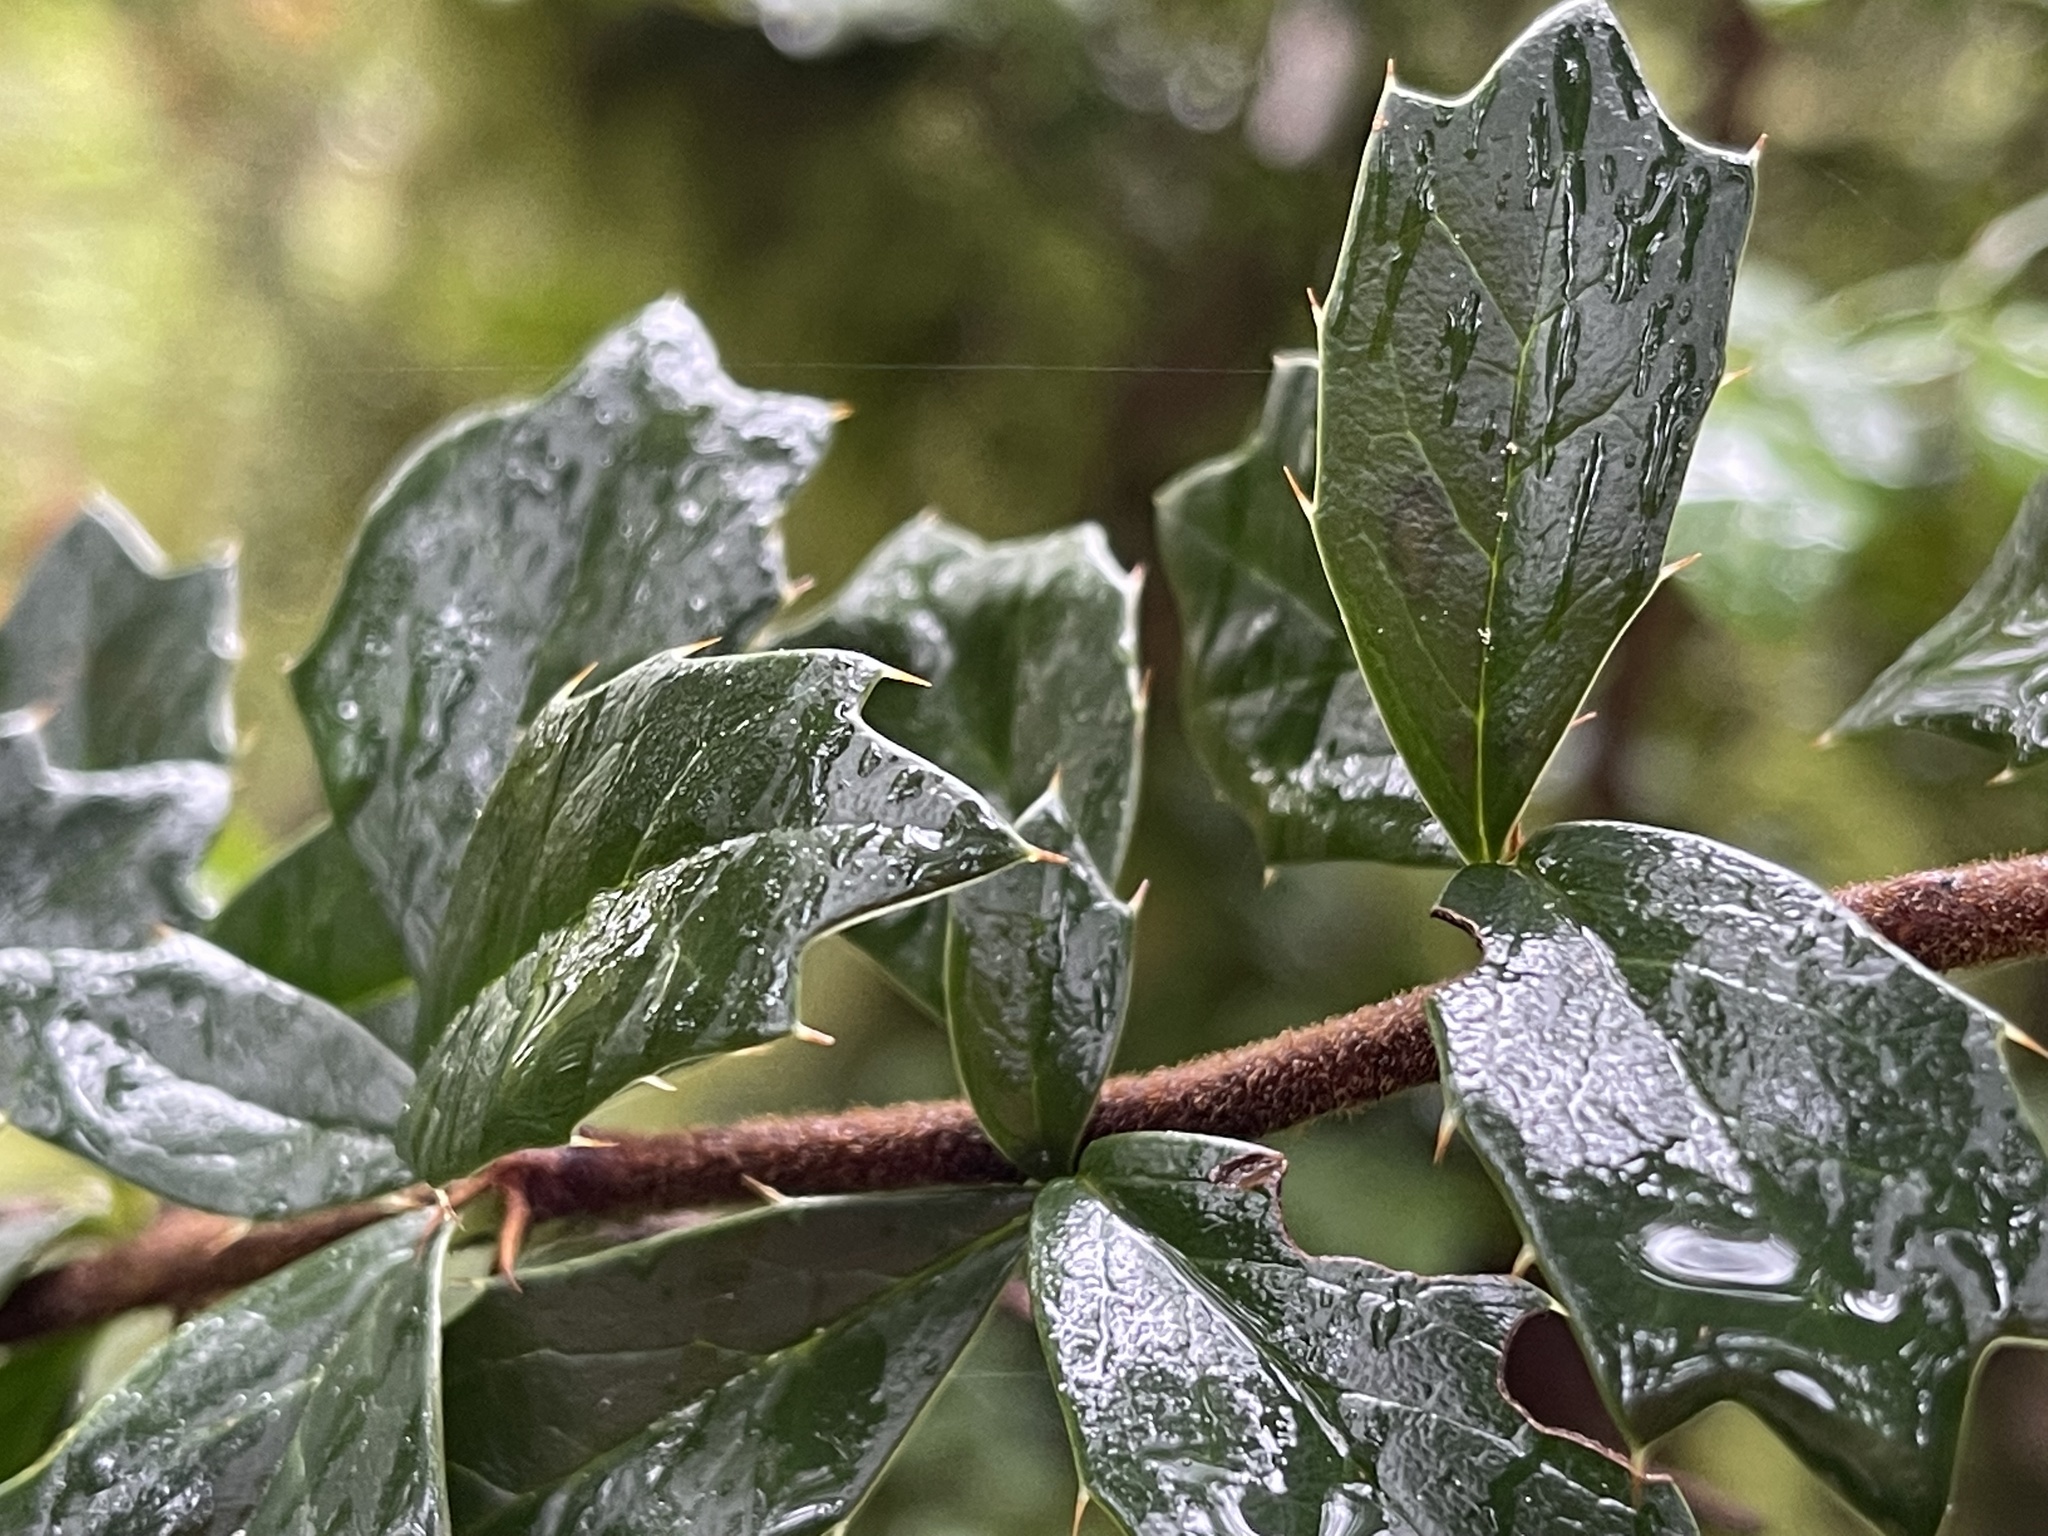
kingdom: Plantae
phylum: Tracheophyta
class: Magnoliopsida
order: Ranunculales
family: Berberidaceae
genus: Berberis
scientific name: Berberis darwinii
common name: Darwin's barberry
